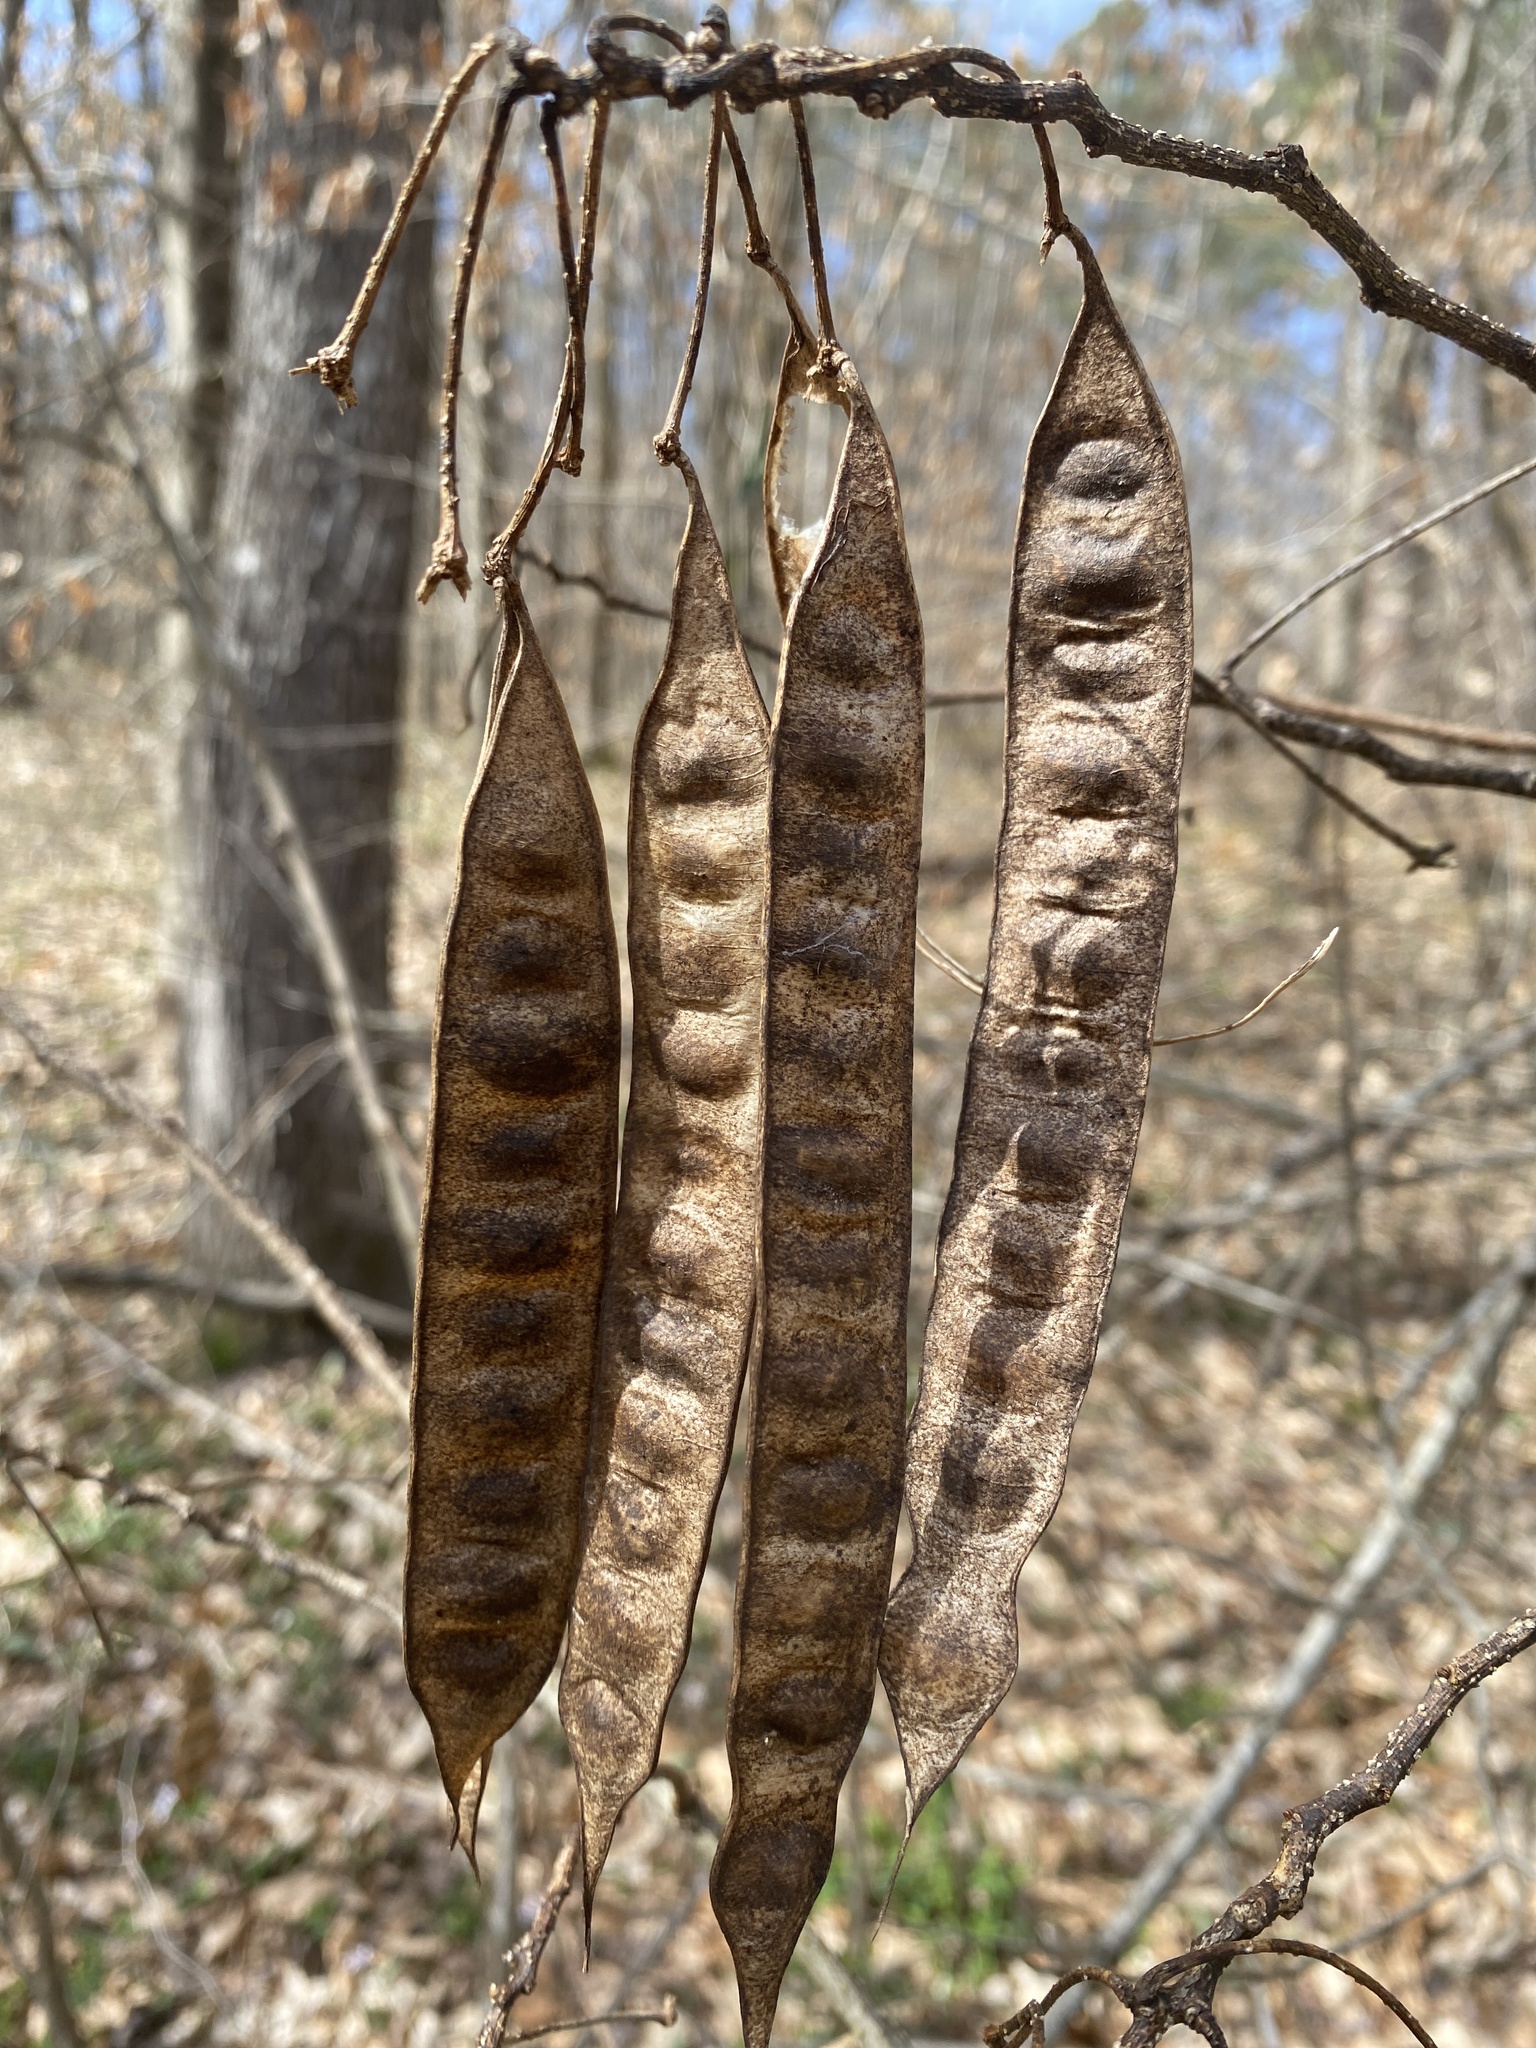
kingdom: Plantae
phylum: Tracheophyta
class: Magnoliopsida
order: Fabales
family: Fabaceae
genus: Albizia
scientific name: Albizia julibrissin
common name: Silktree
